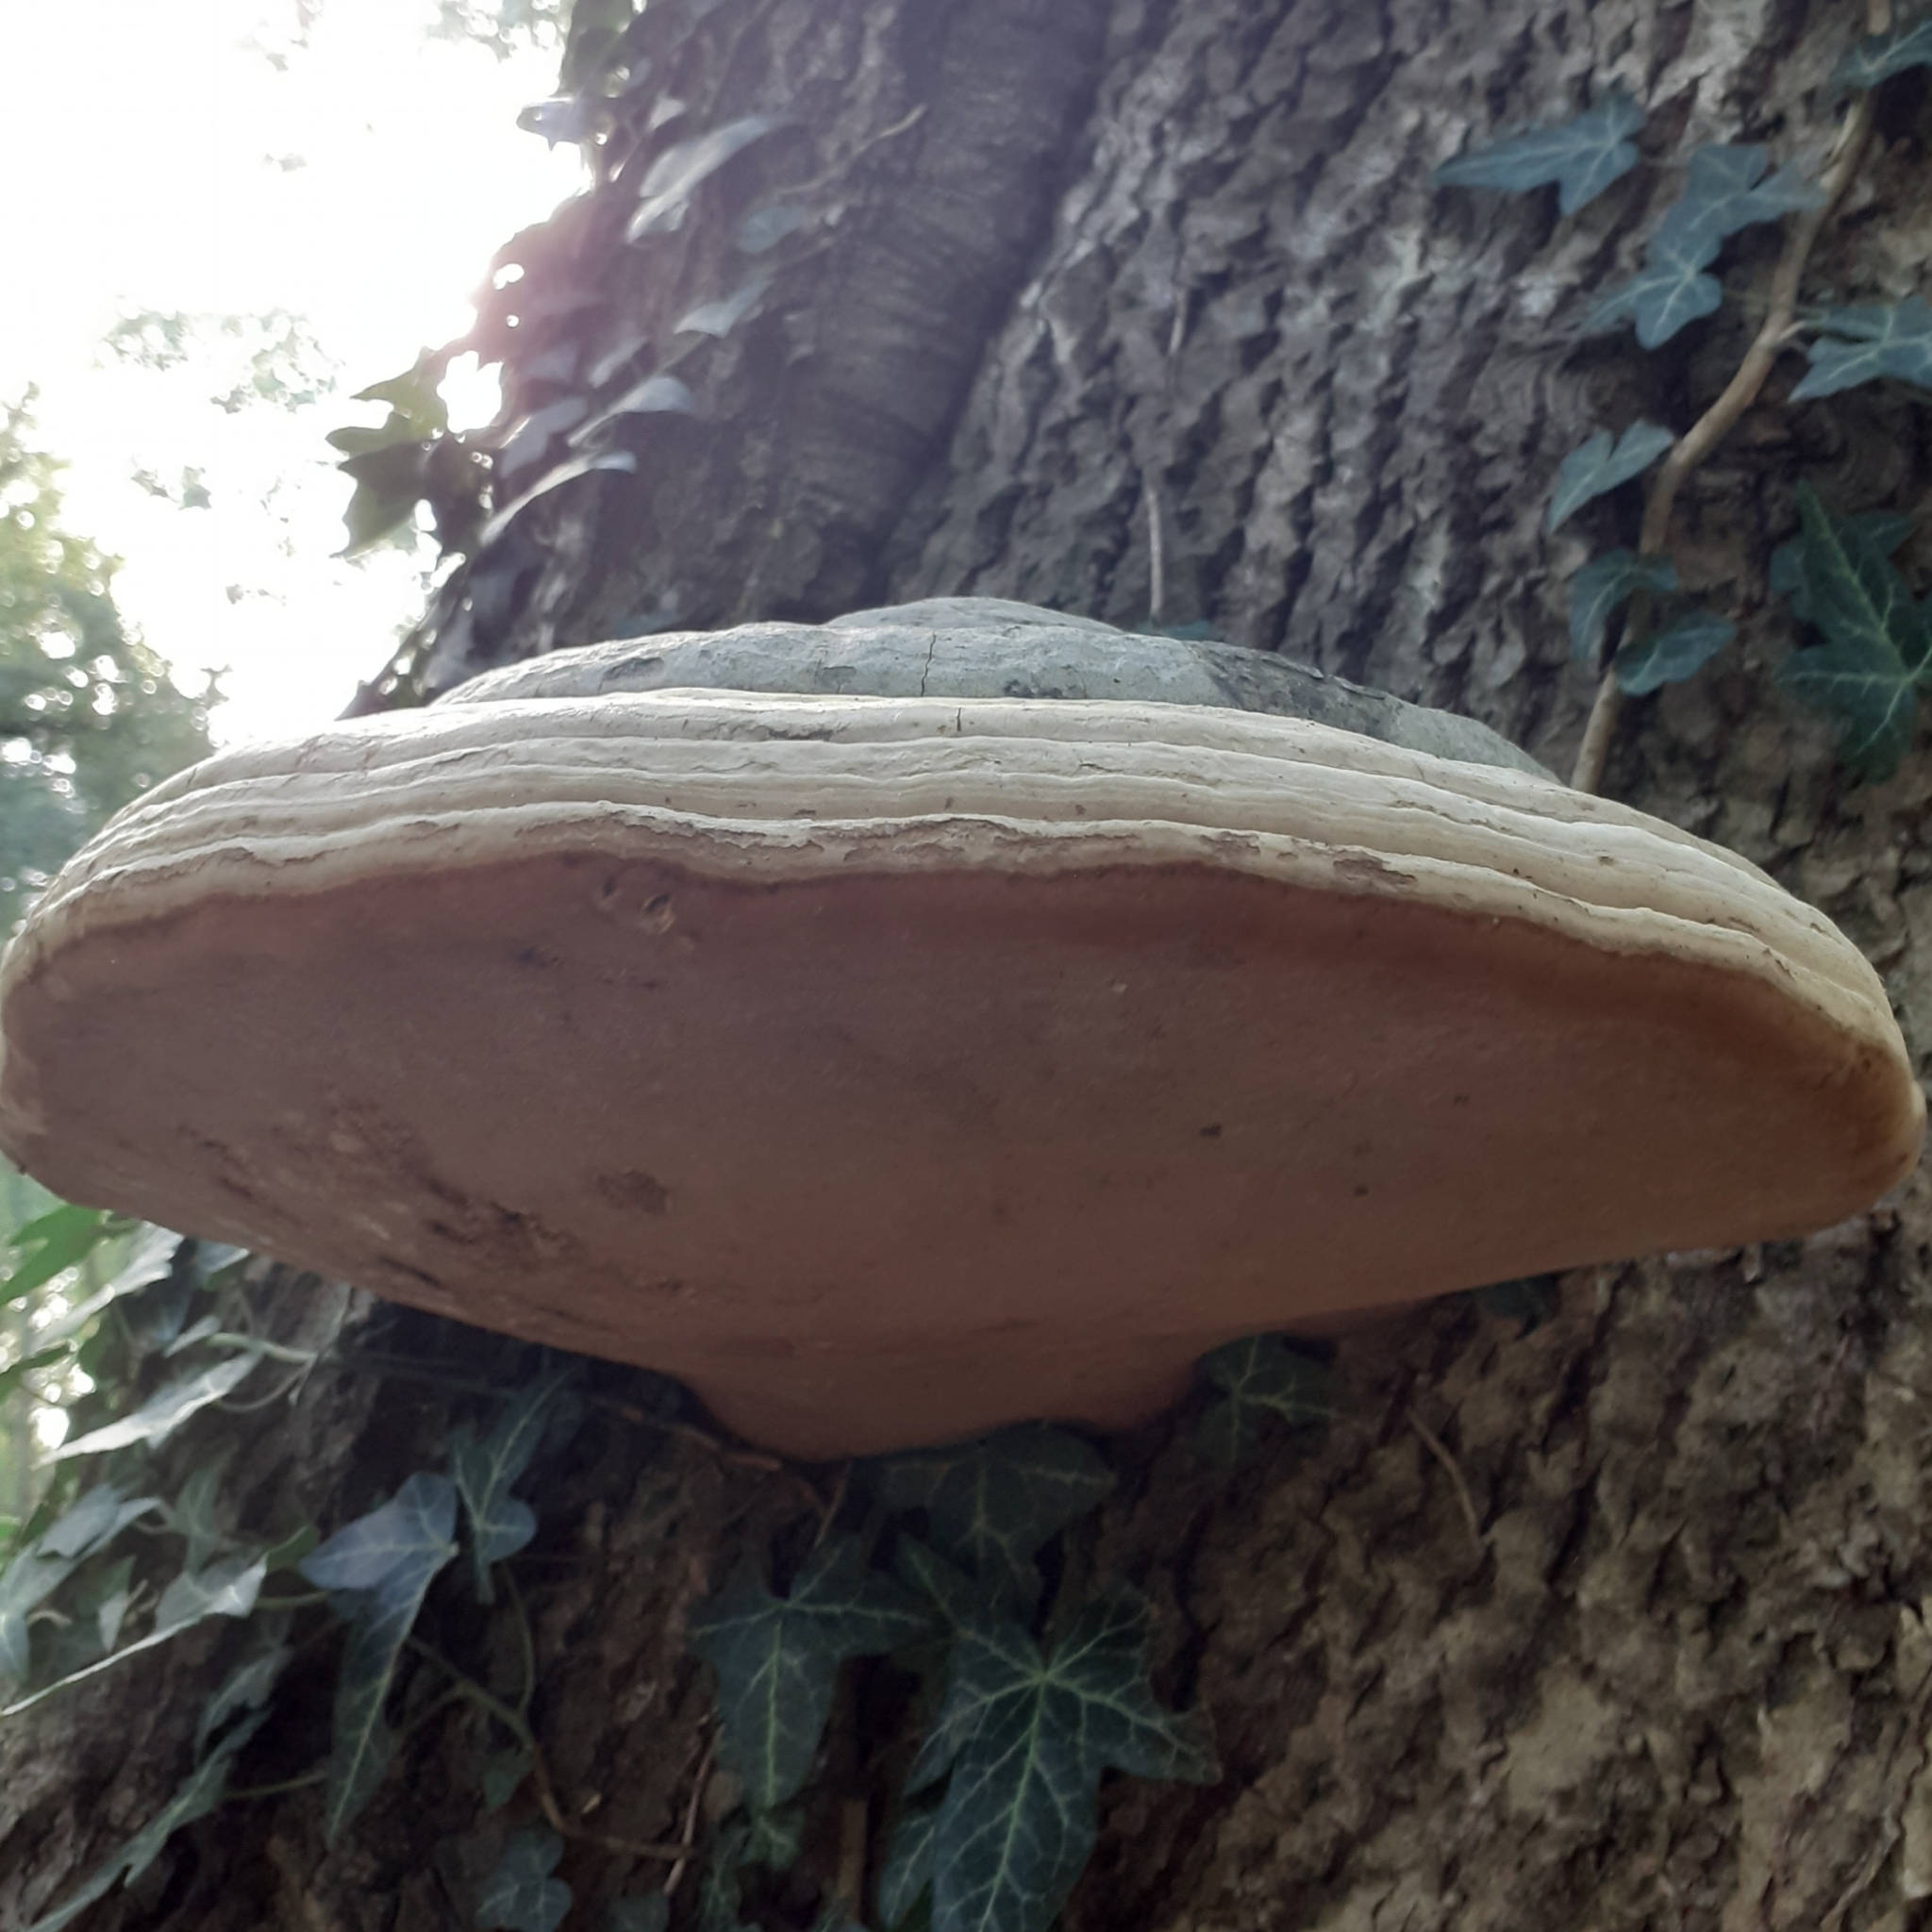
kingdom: Fungi
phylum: Basidiomycota
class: Agaricomycetes
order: Polyporales
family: Polyporaceae
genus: Fomes
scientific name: Fomes fomentarius
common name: Hoof fungus
